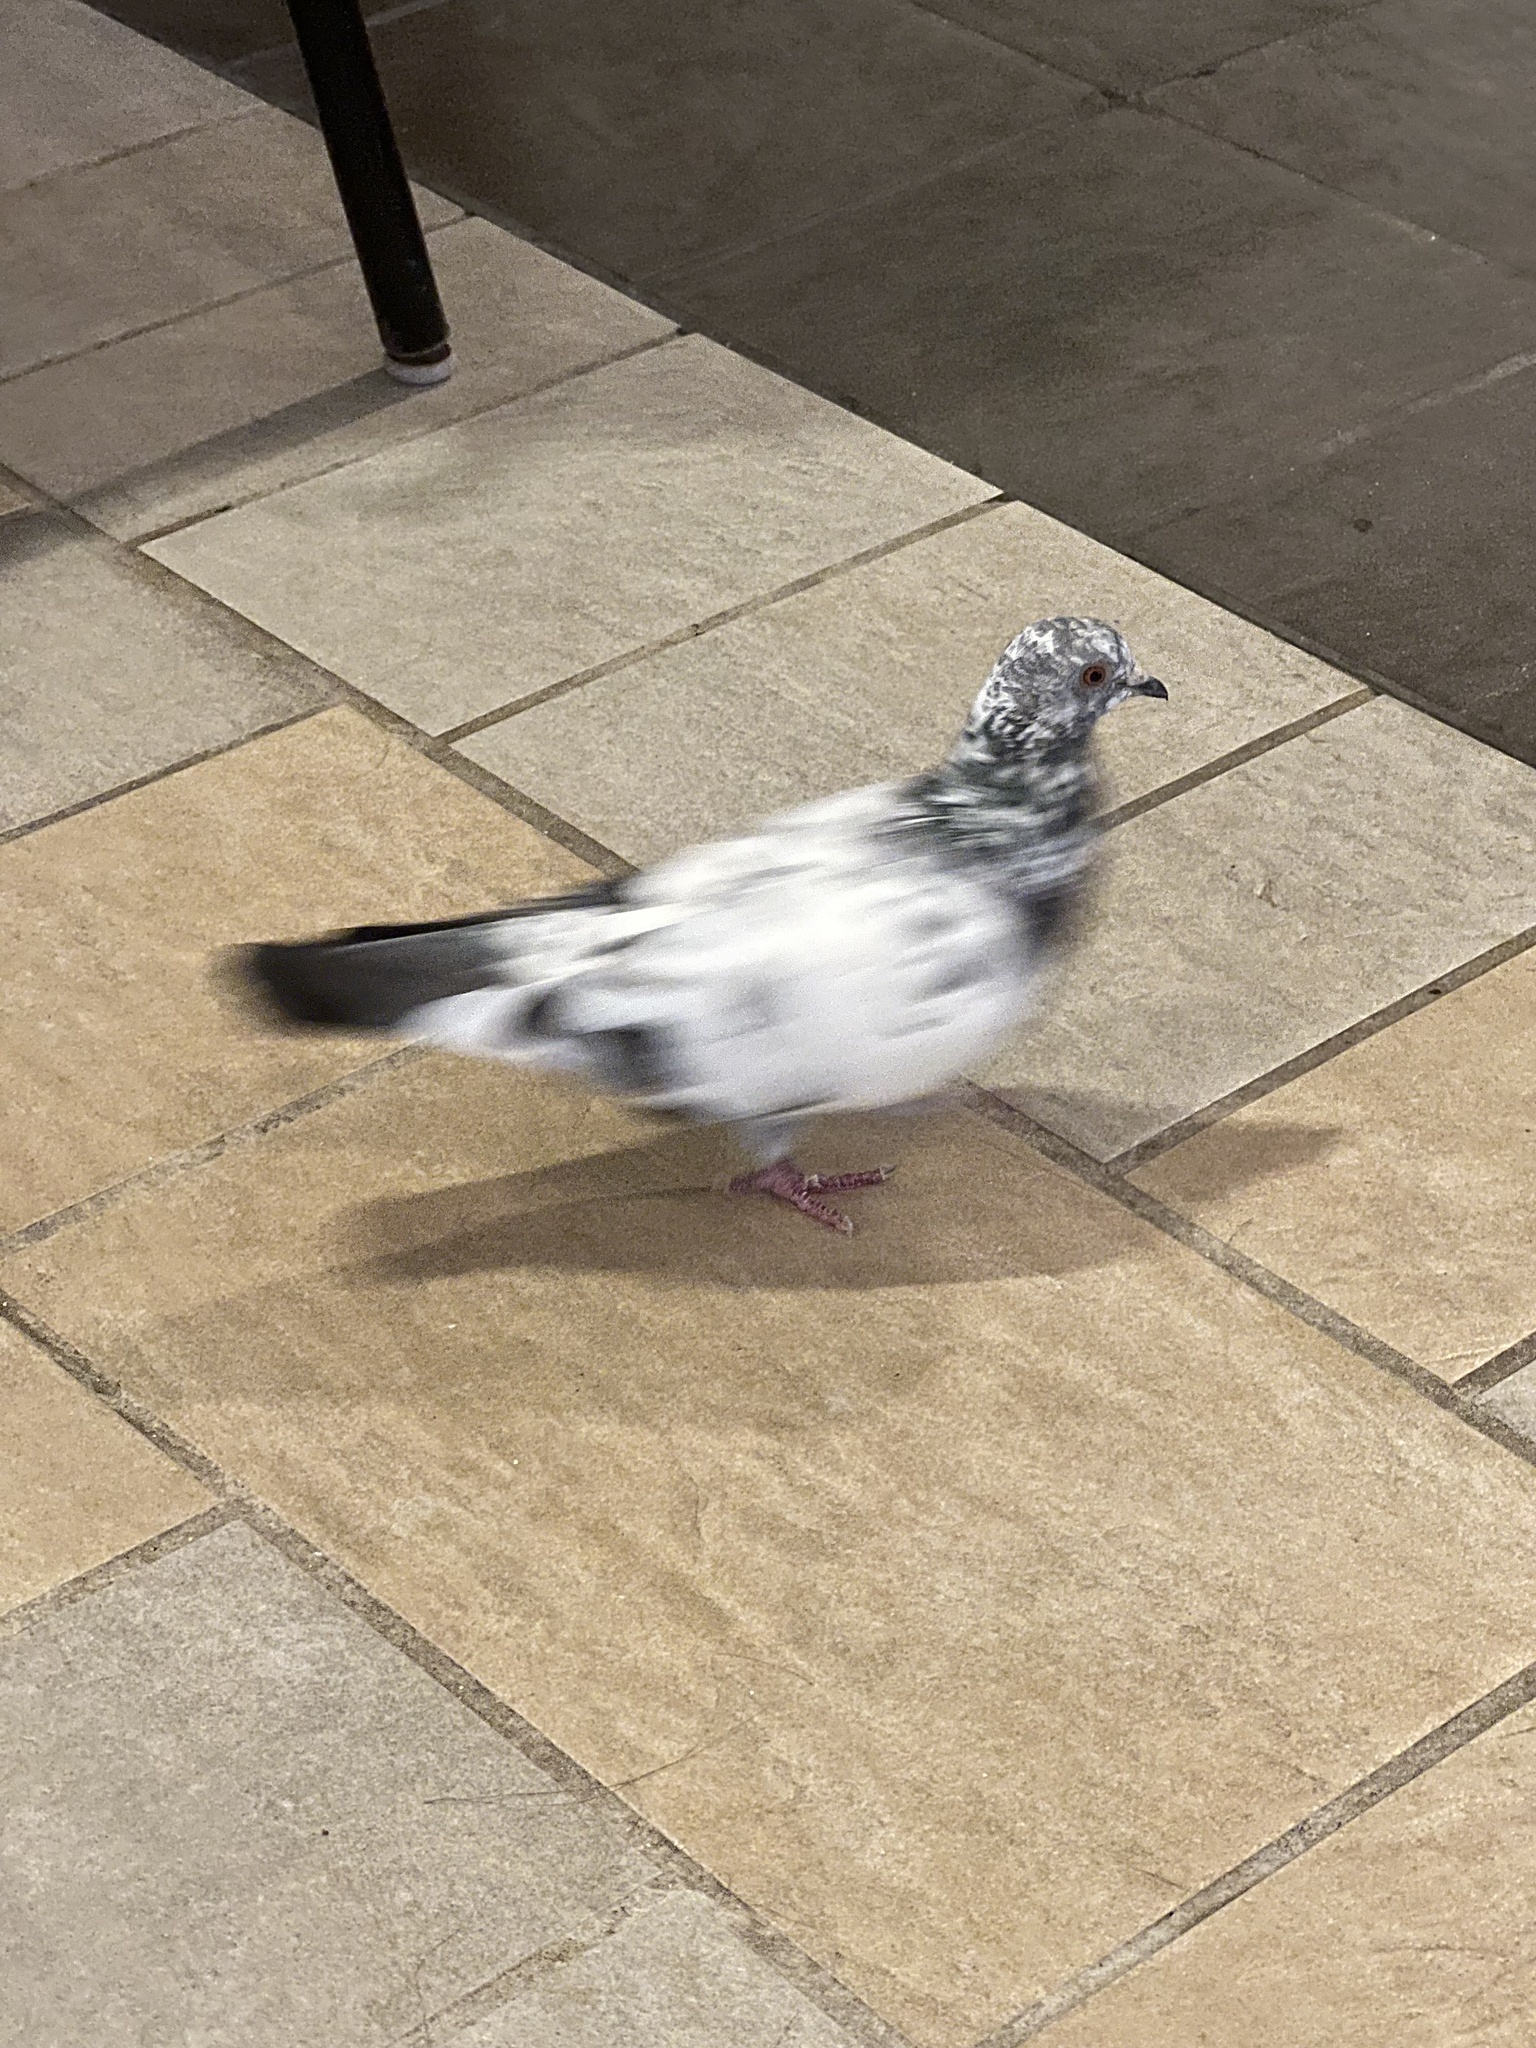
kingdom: Animalia
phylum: Chordata
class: Aves
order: Columbiformes
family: Columbidae
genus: Columba
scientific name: Columba livia
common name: Rock pigeon
